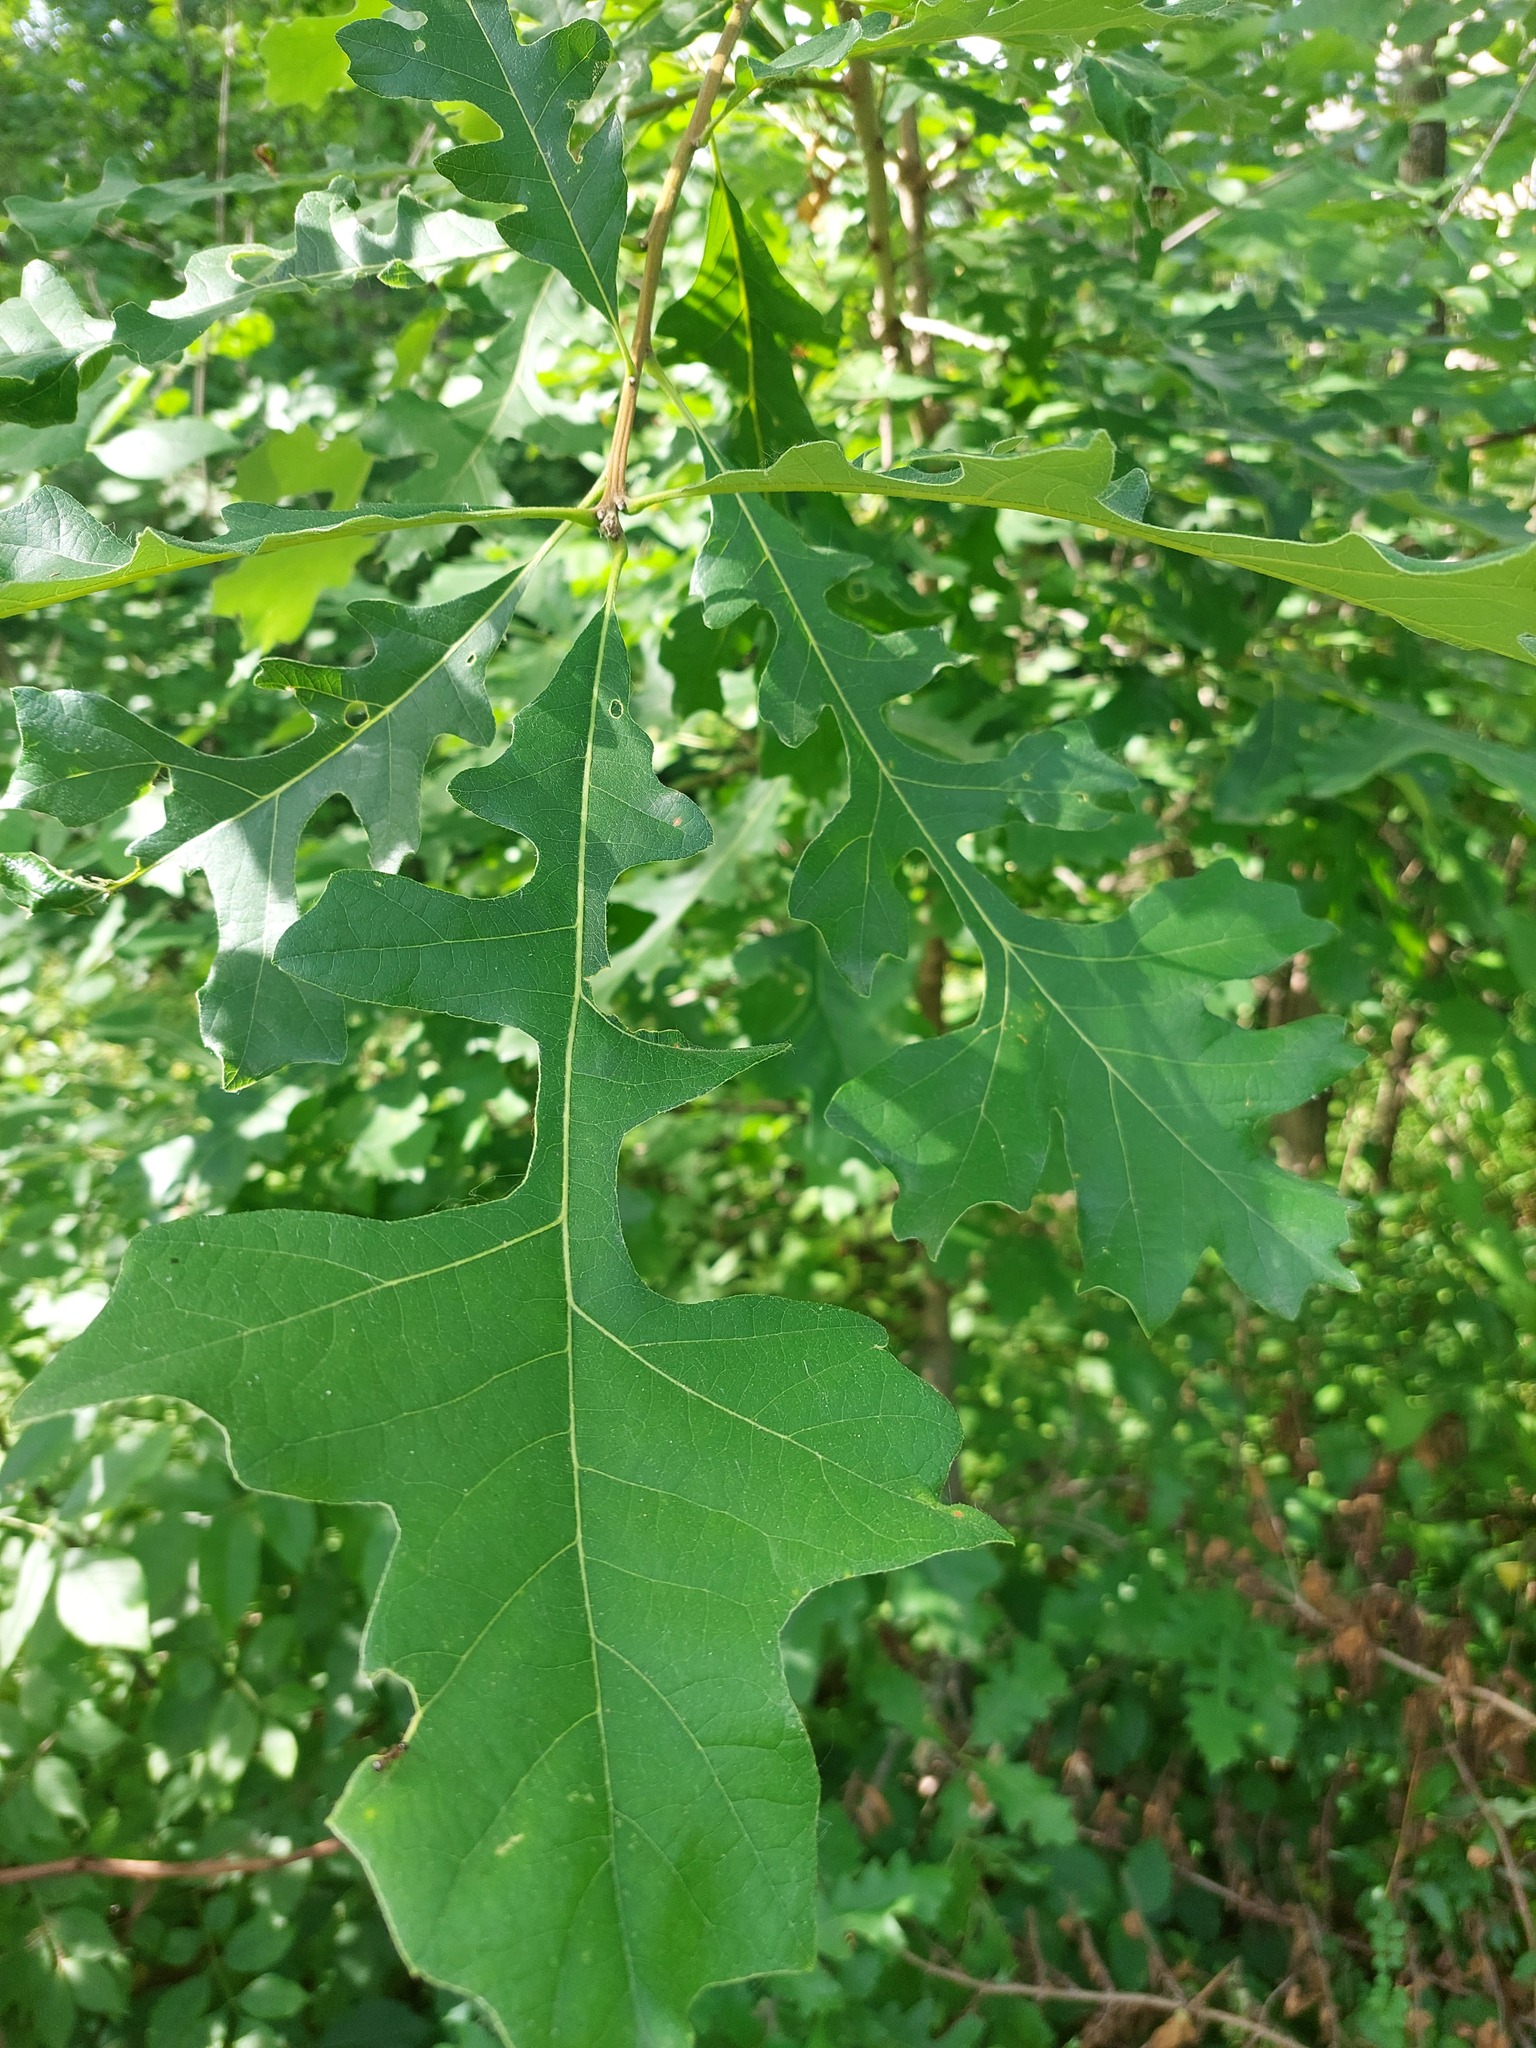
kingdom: Plantae
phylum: Tracheophyta
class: Magnoliopsida
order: Fagales
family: Fagaceae
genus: Quercus
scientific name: Quercus macrocarpa
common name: Bur oak
